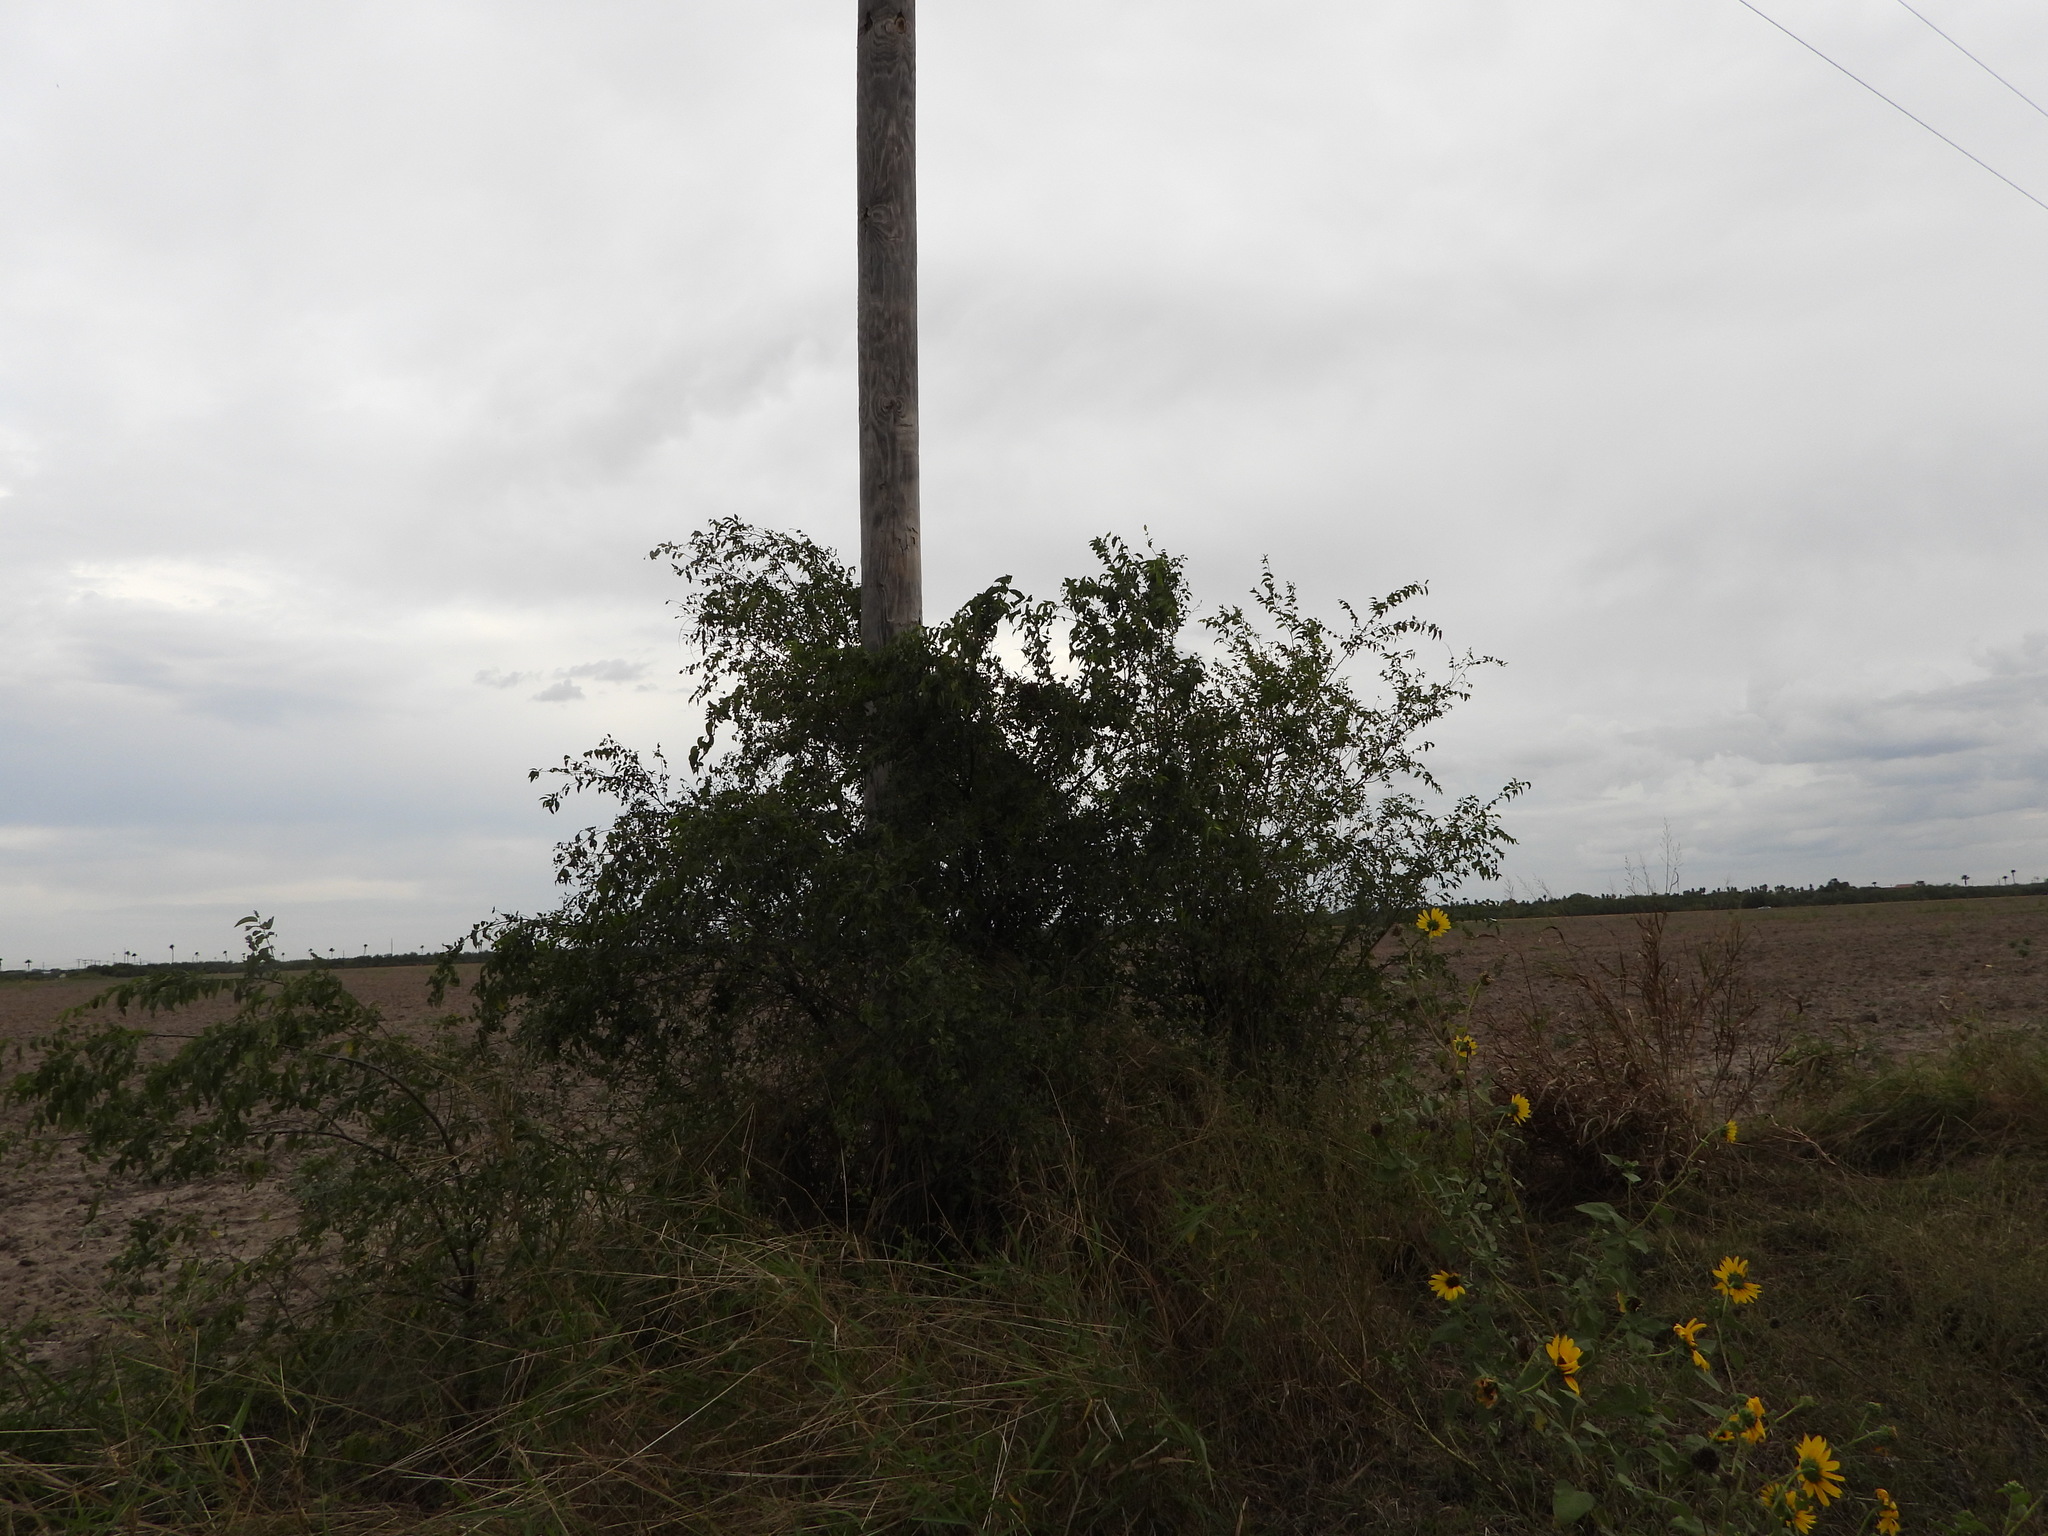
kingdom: Plantae
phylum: Tracheophyta
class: Magnoliopsida
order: Rosales
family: Cannabaceae
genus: Celtis
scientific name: Celtis laevigata
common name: Sugarberry
